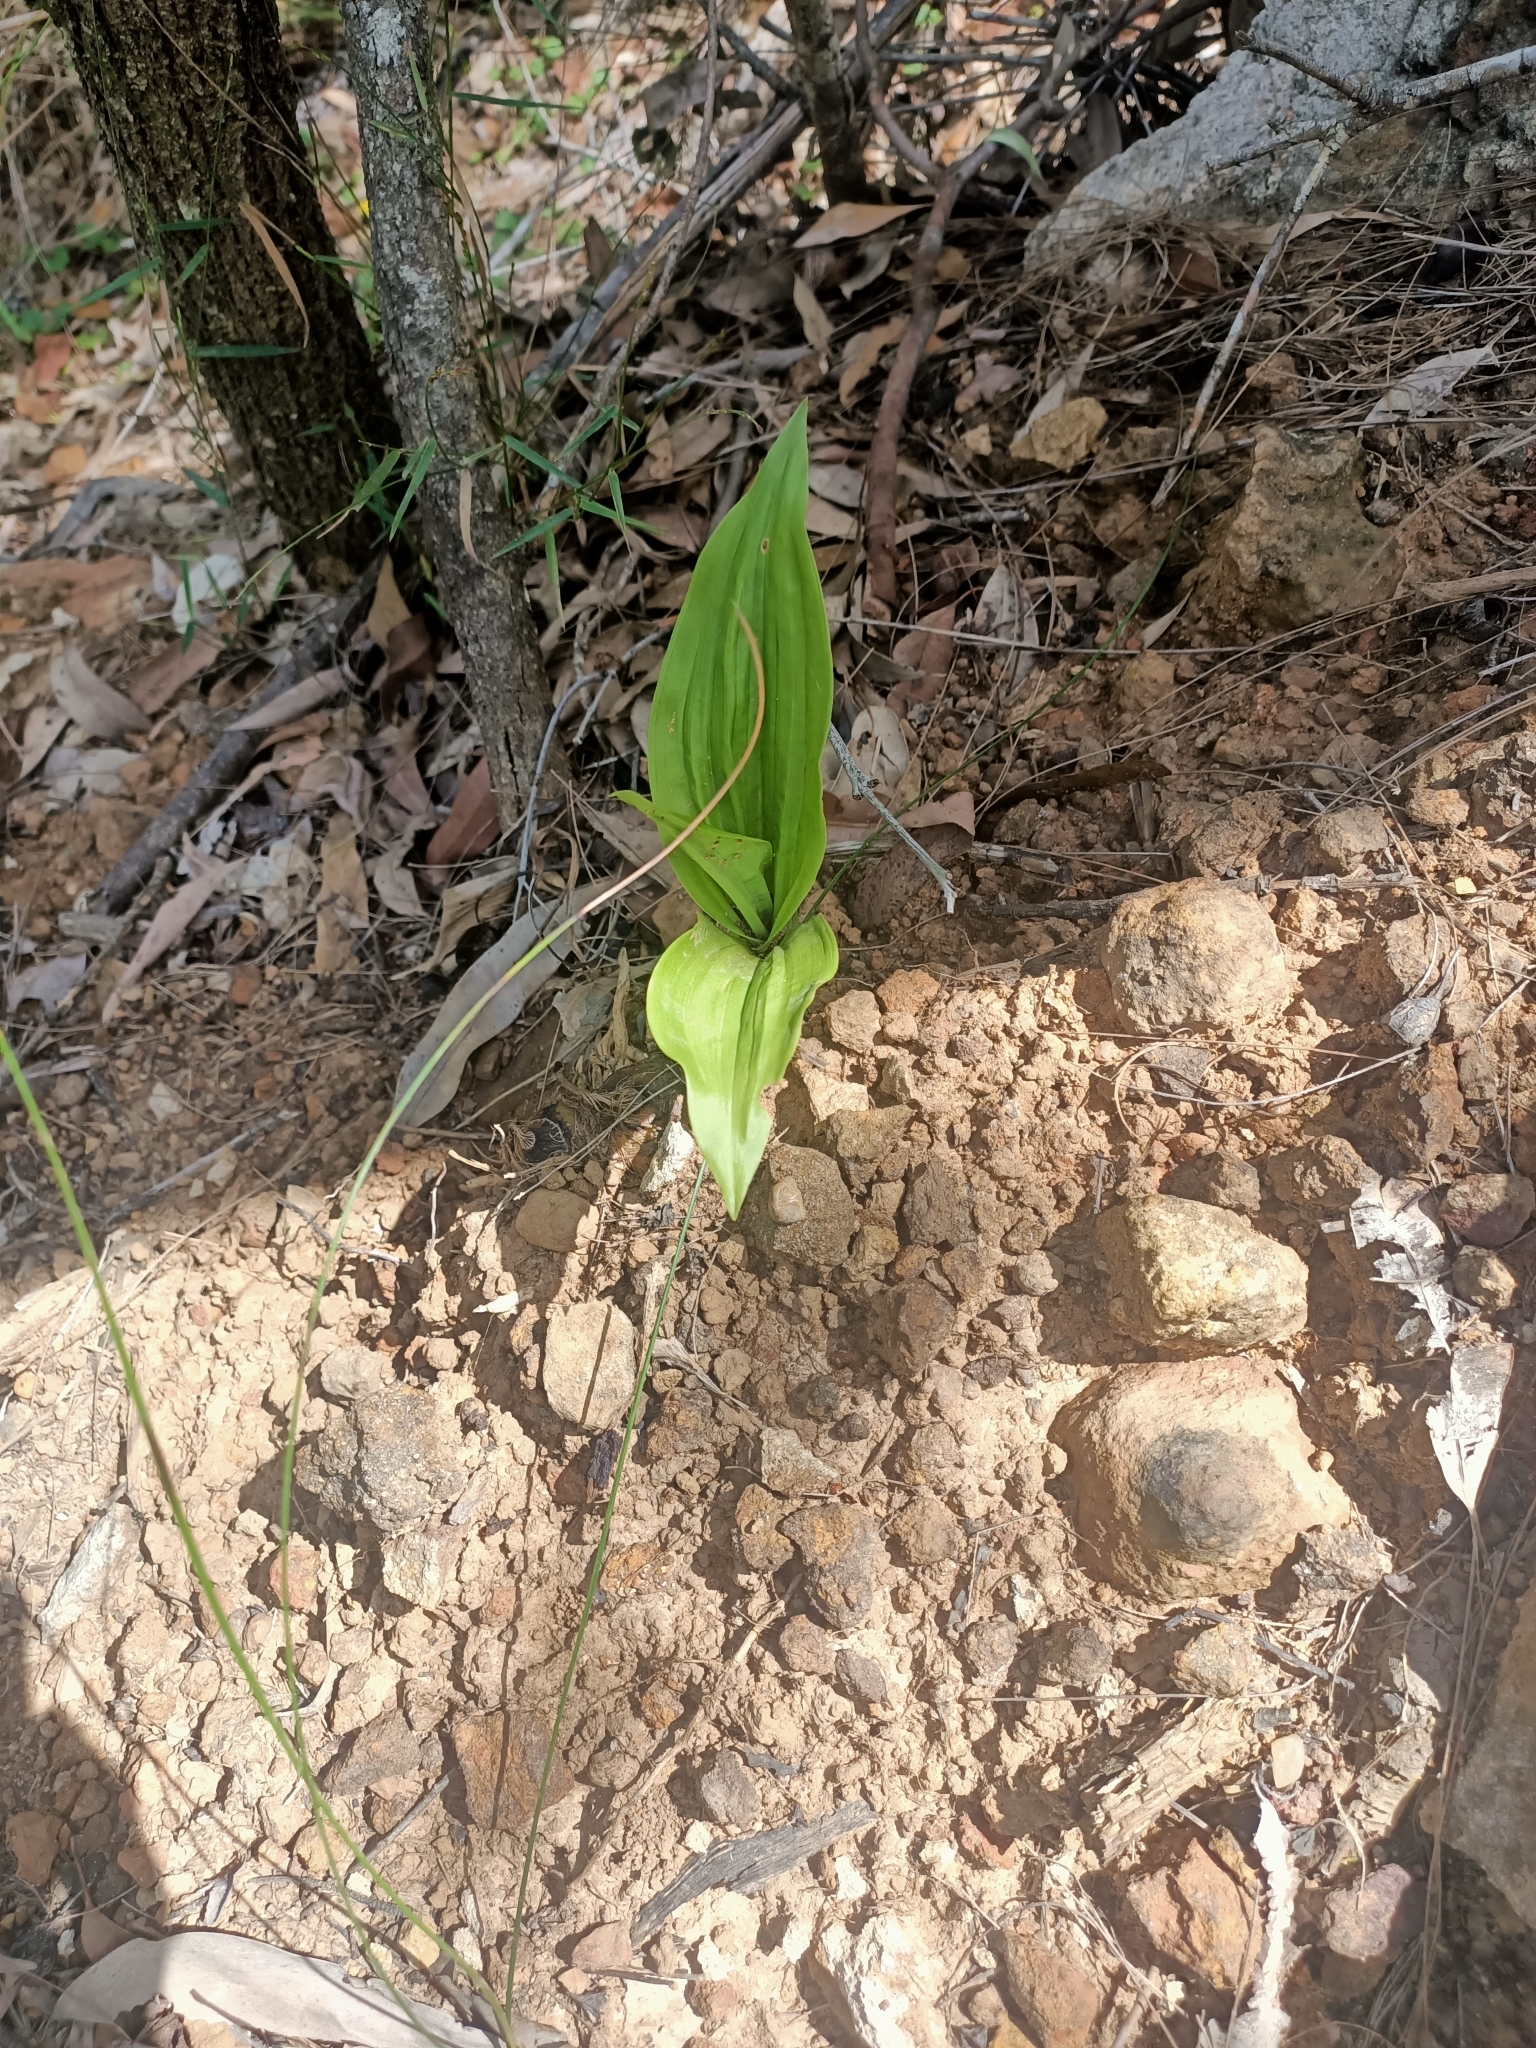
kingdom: Plantae
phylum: Tracheophyta
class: Liliopsida
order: Asparagales
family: Orchidaceae
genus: Eulophia
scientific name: Eulophia cernua
